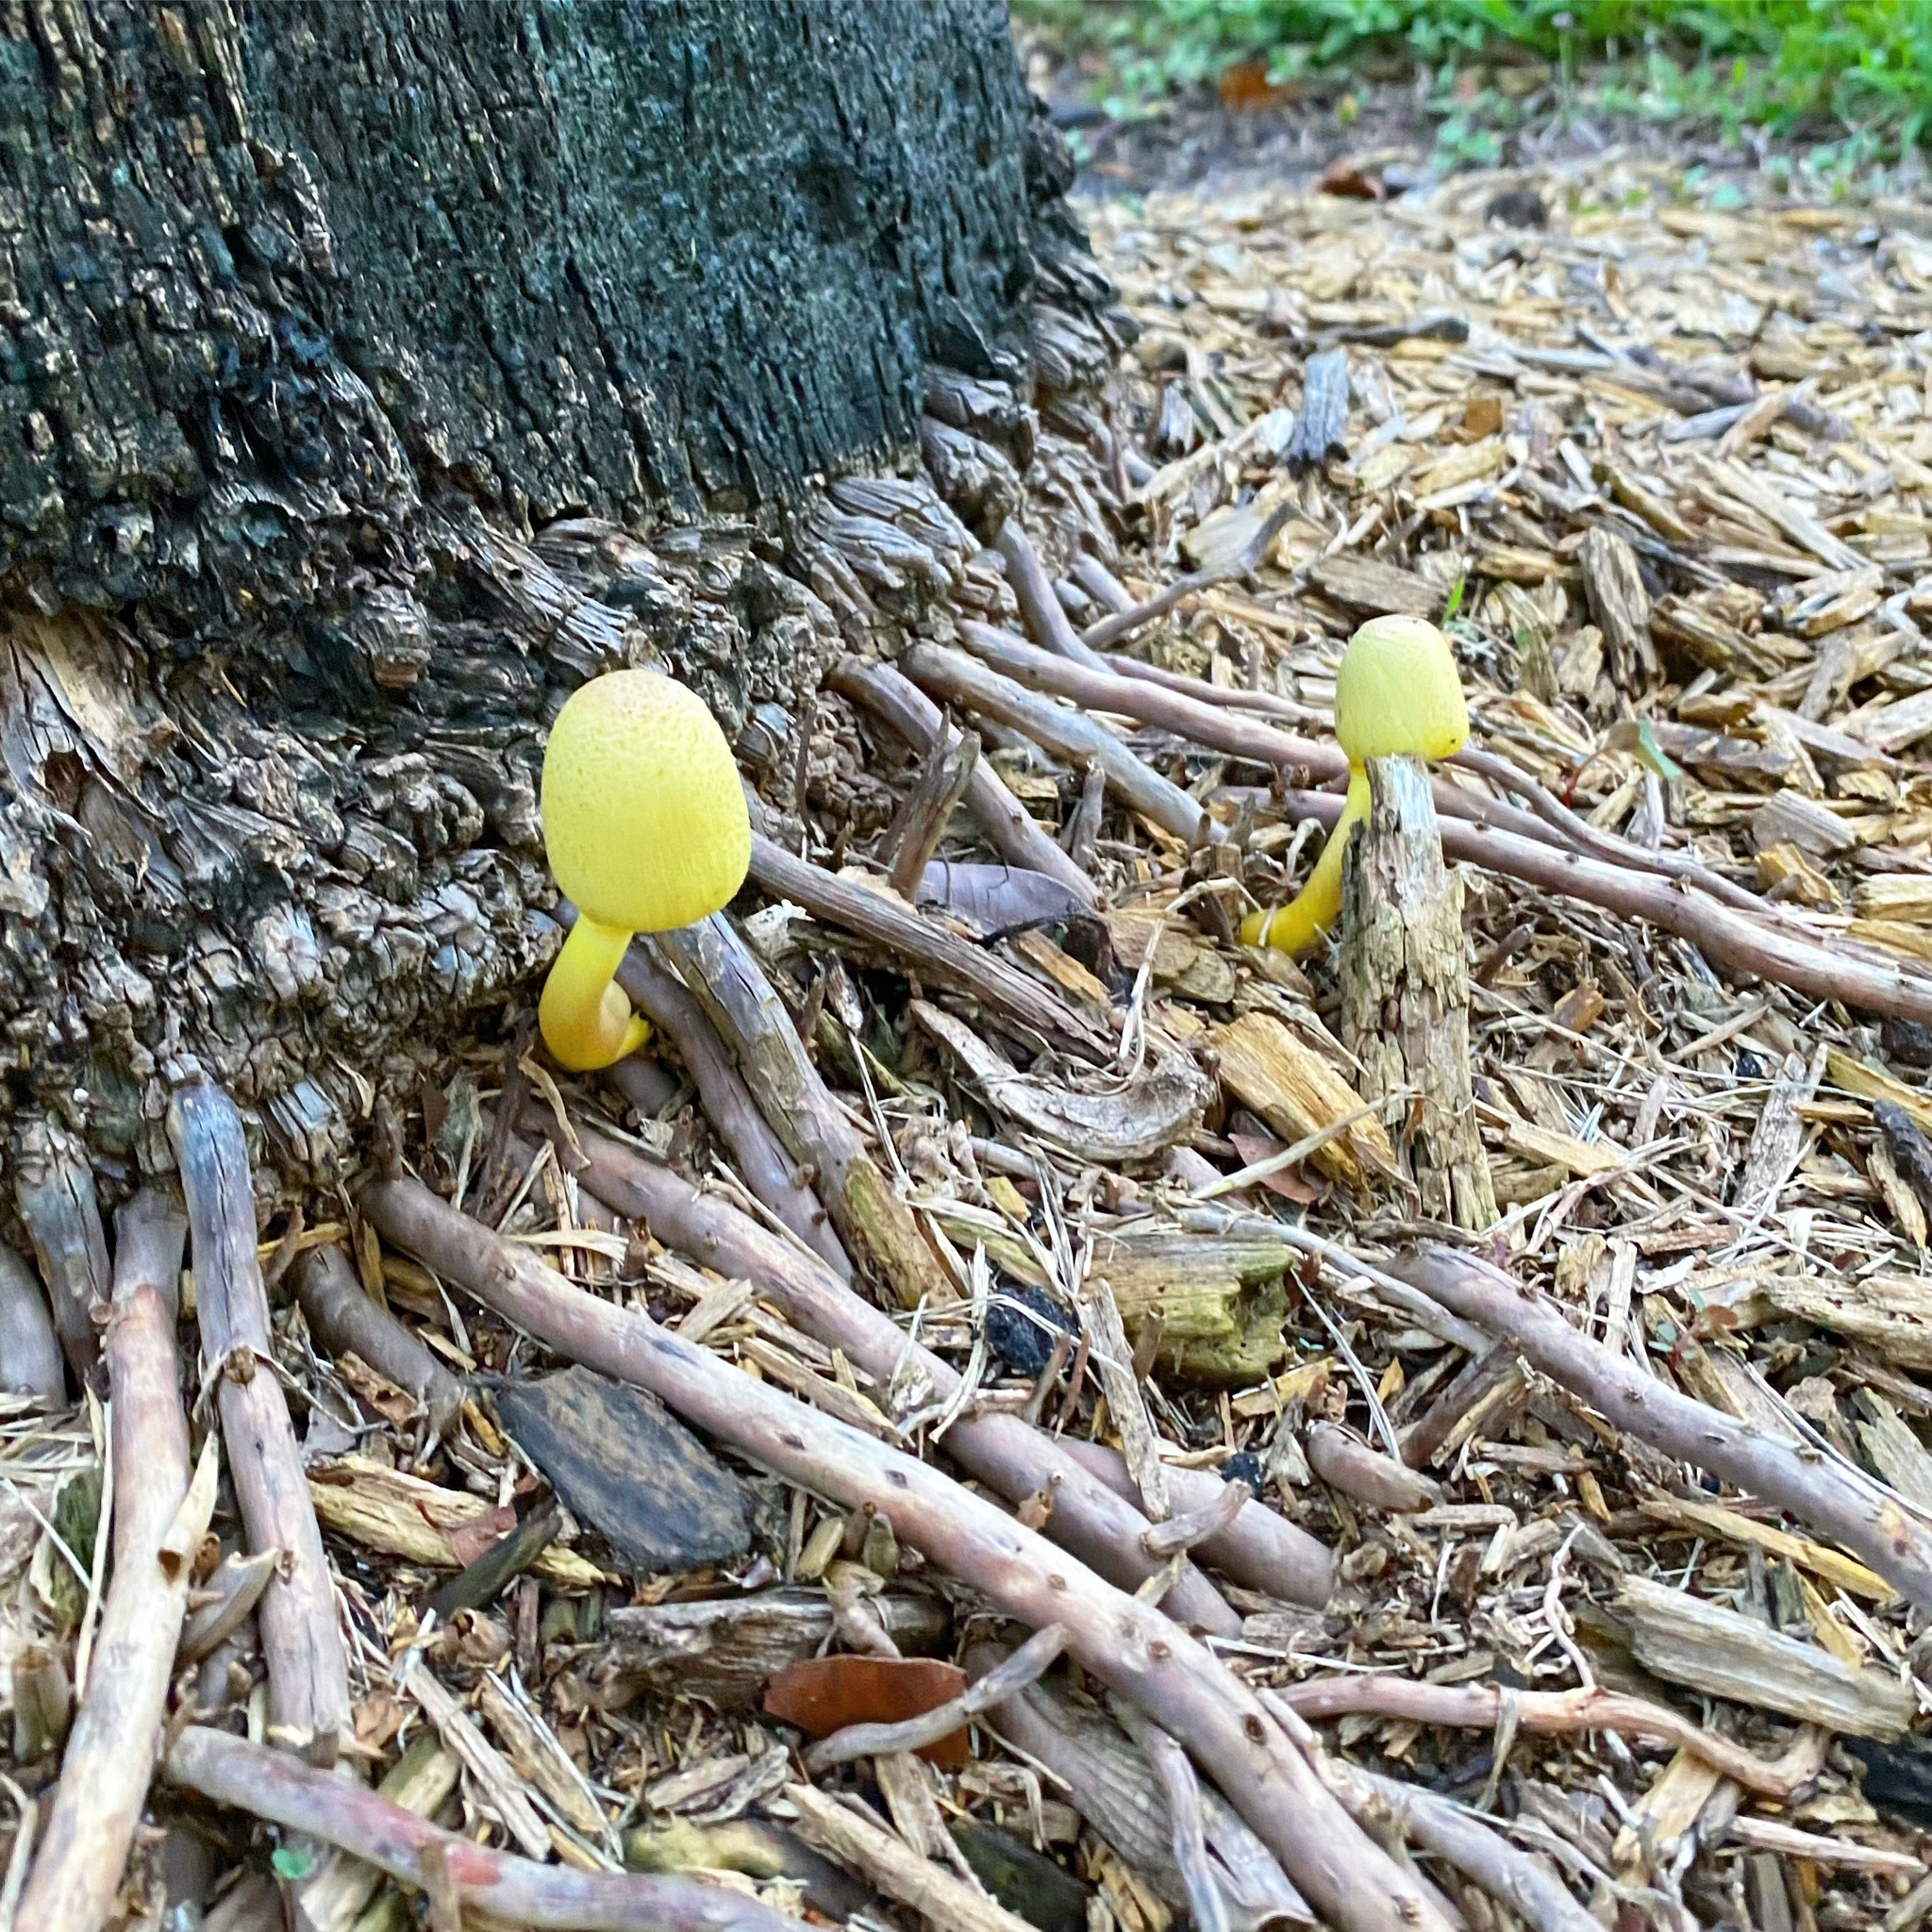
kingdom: Fungi
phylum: Basidiomycota
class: Agaricomycetes
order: Agaricales
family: Agaricaceae
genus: Leucocoprinus
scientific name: Leucocoprinus birnbaumii
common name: Plantpot dapperling
